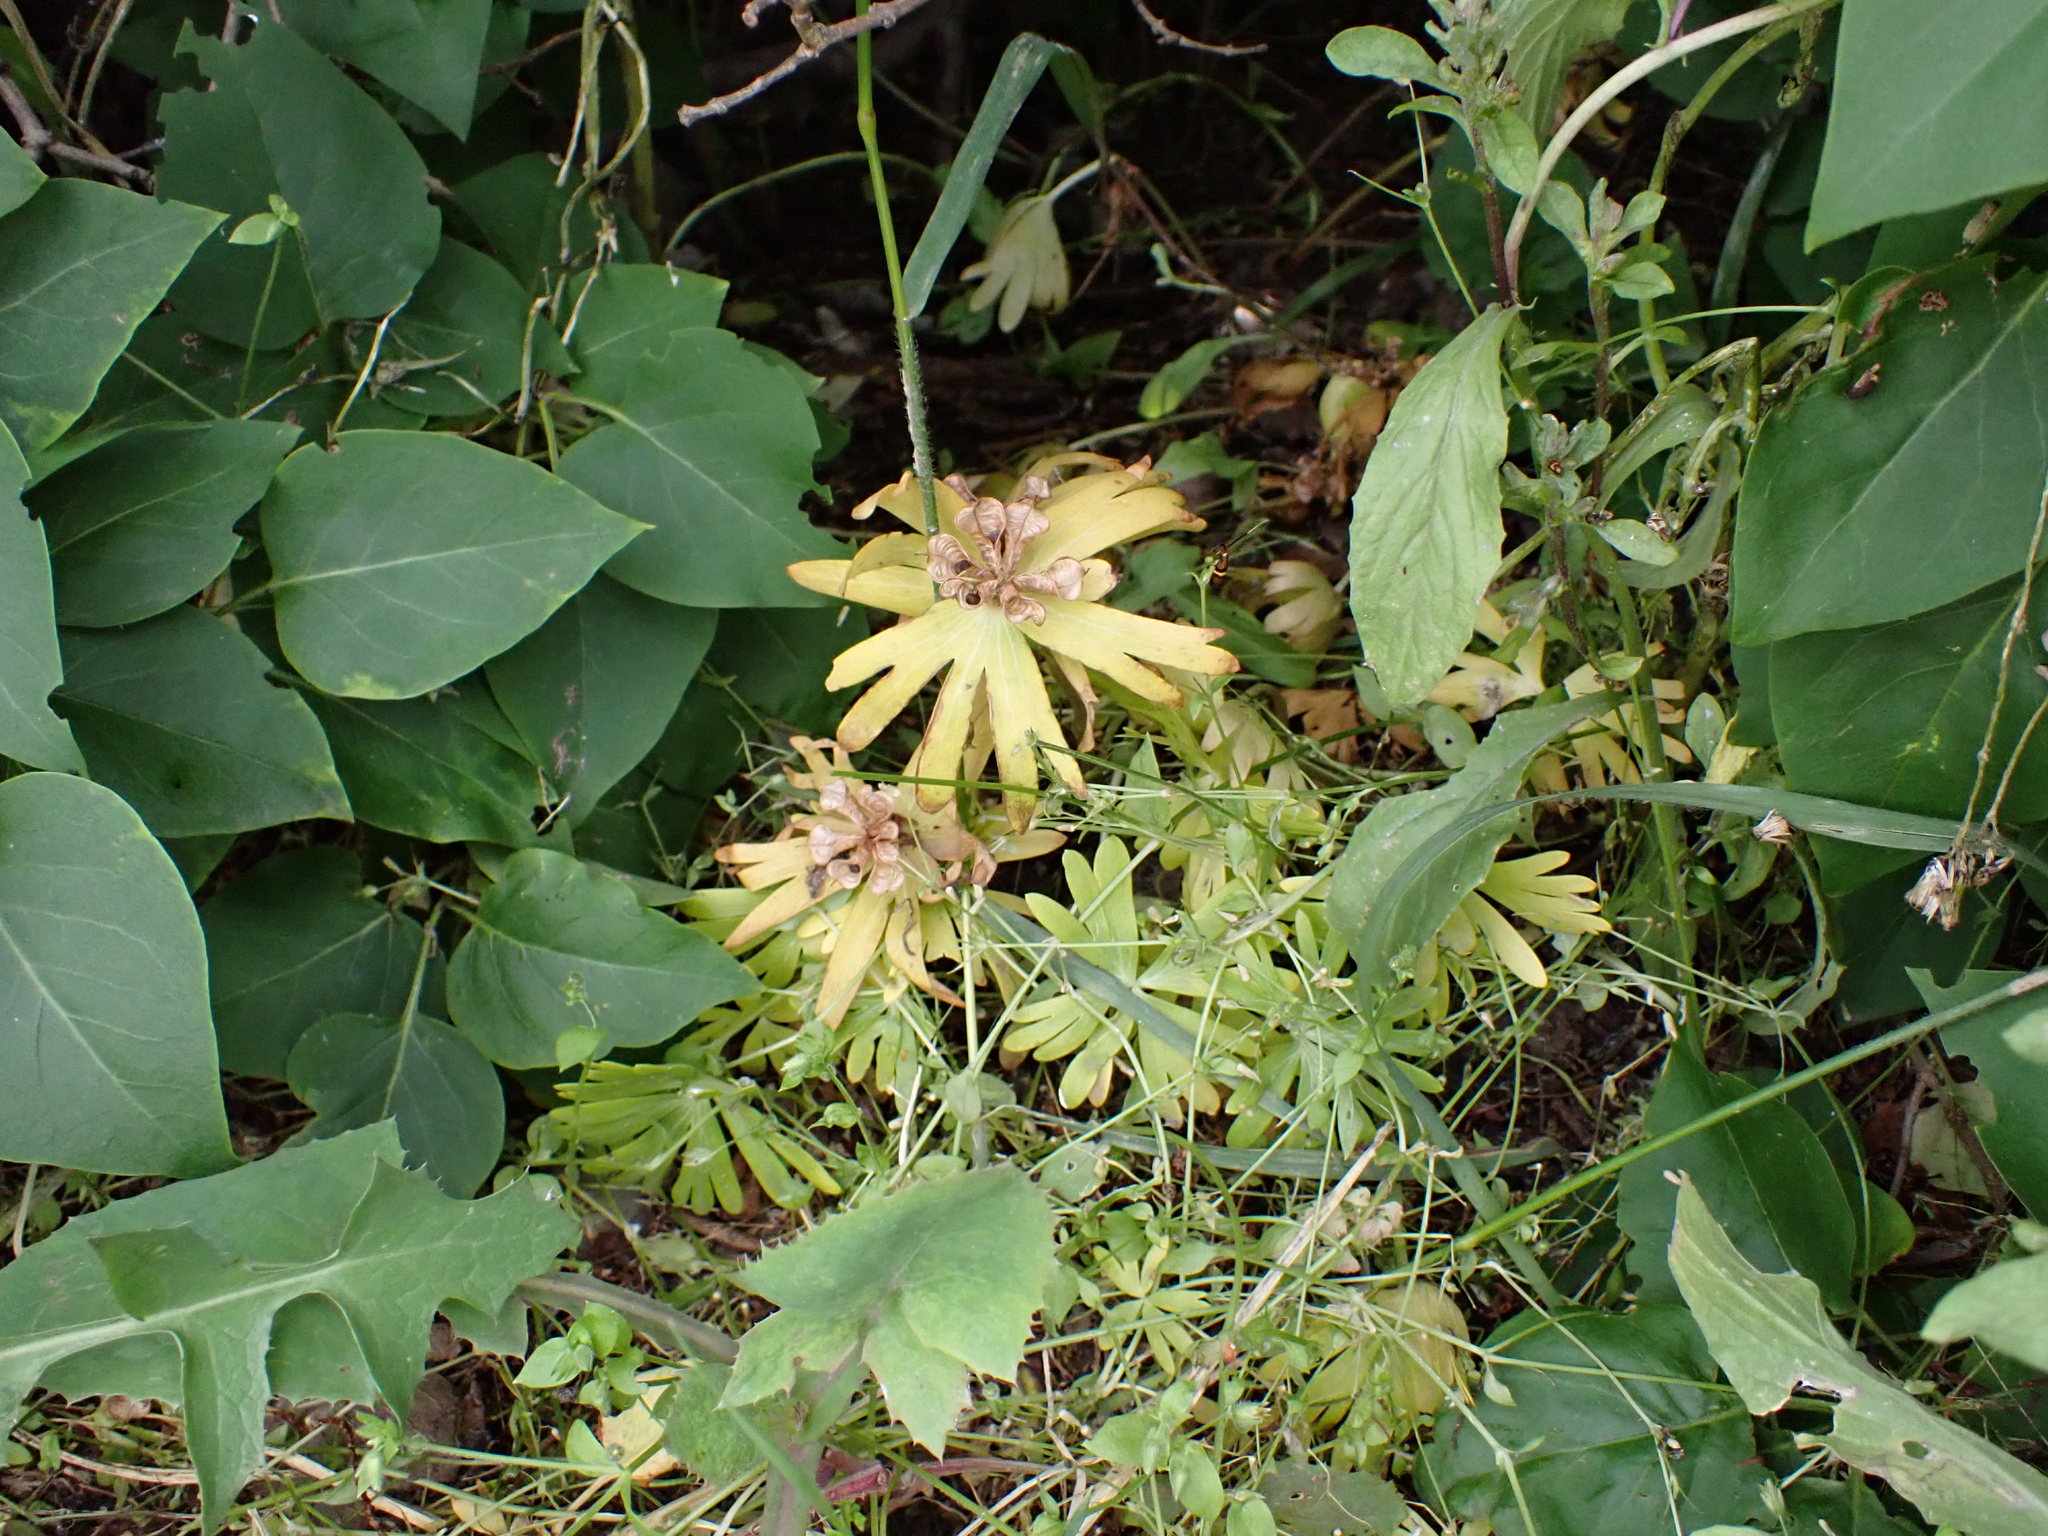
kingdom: Plantae
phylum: Tracheophyta
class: Magnoliopsida
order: Ranunculales
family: Ranunculaceae
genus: Eranthis
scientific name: Eranthis hyemalis
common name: Winter aconite
